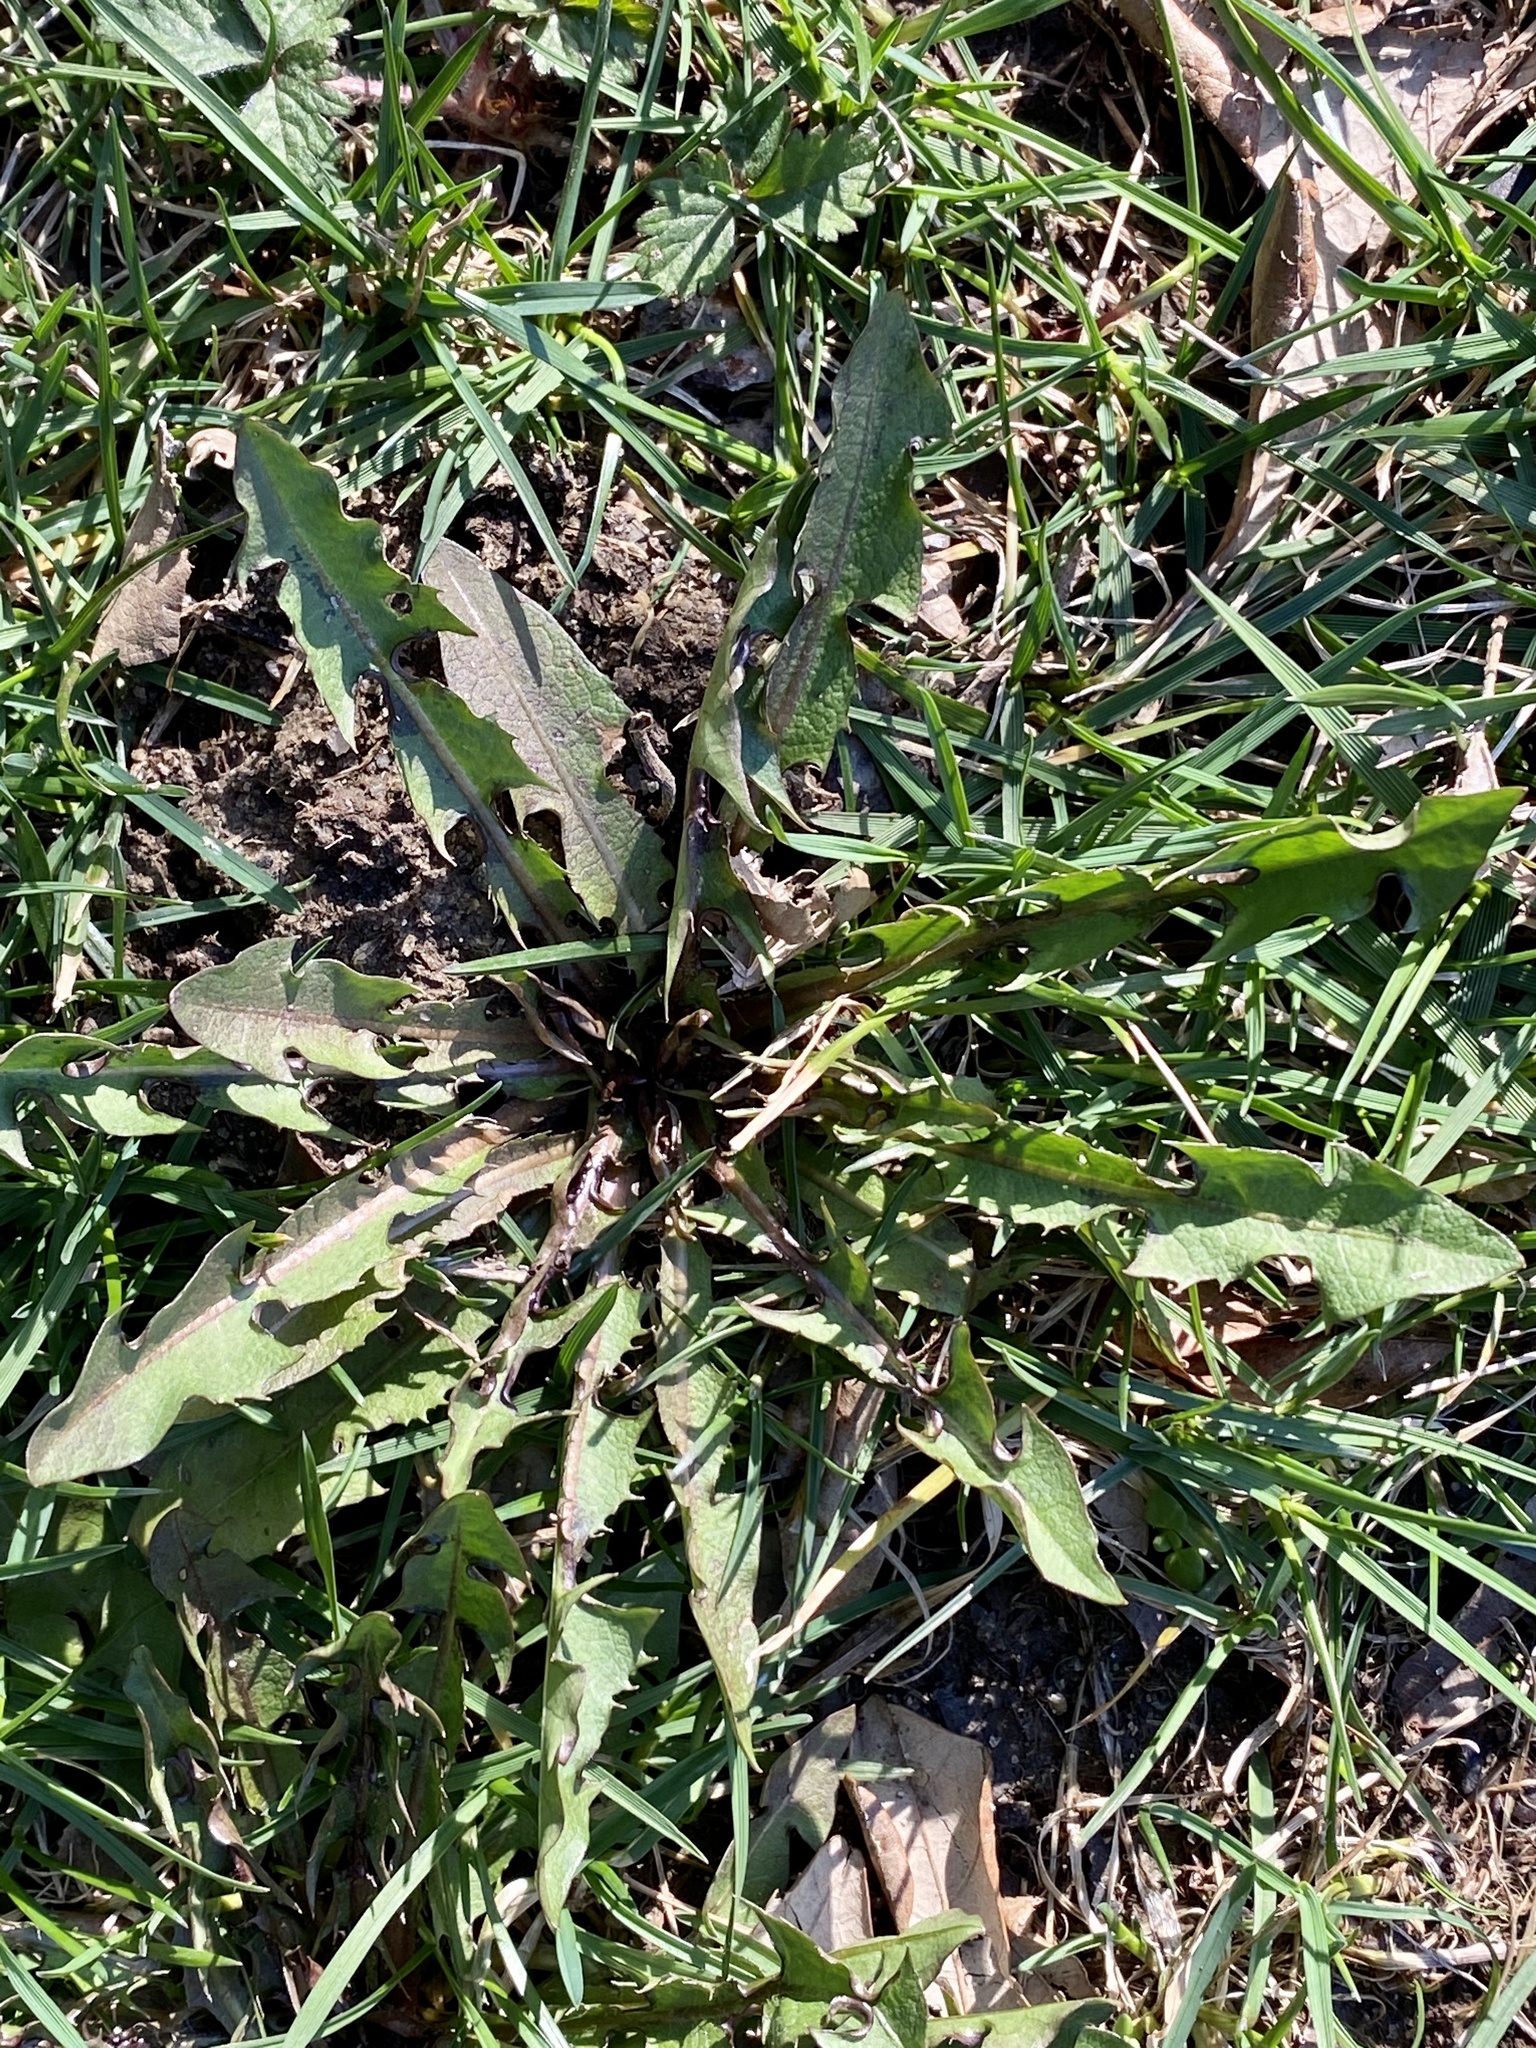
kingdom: Plantae
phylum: Tracheophyta
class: Magnoliopsida
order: Asterales
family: Asteraceae
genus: Taraxacum
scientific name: Taraxacum officinale
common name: Common dandelion
